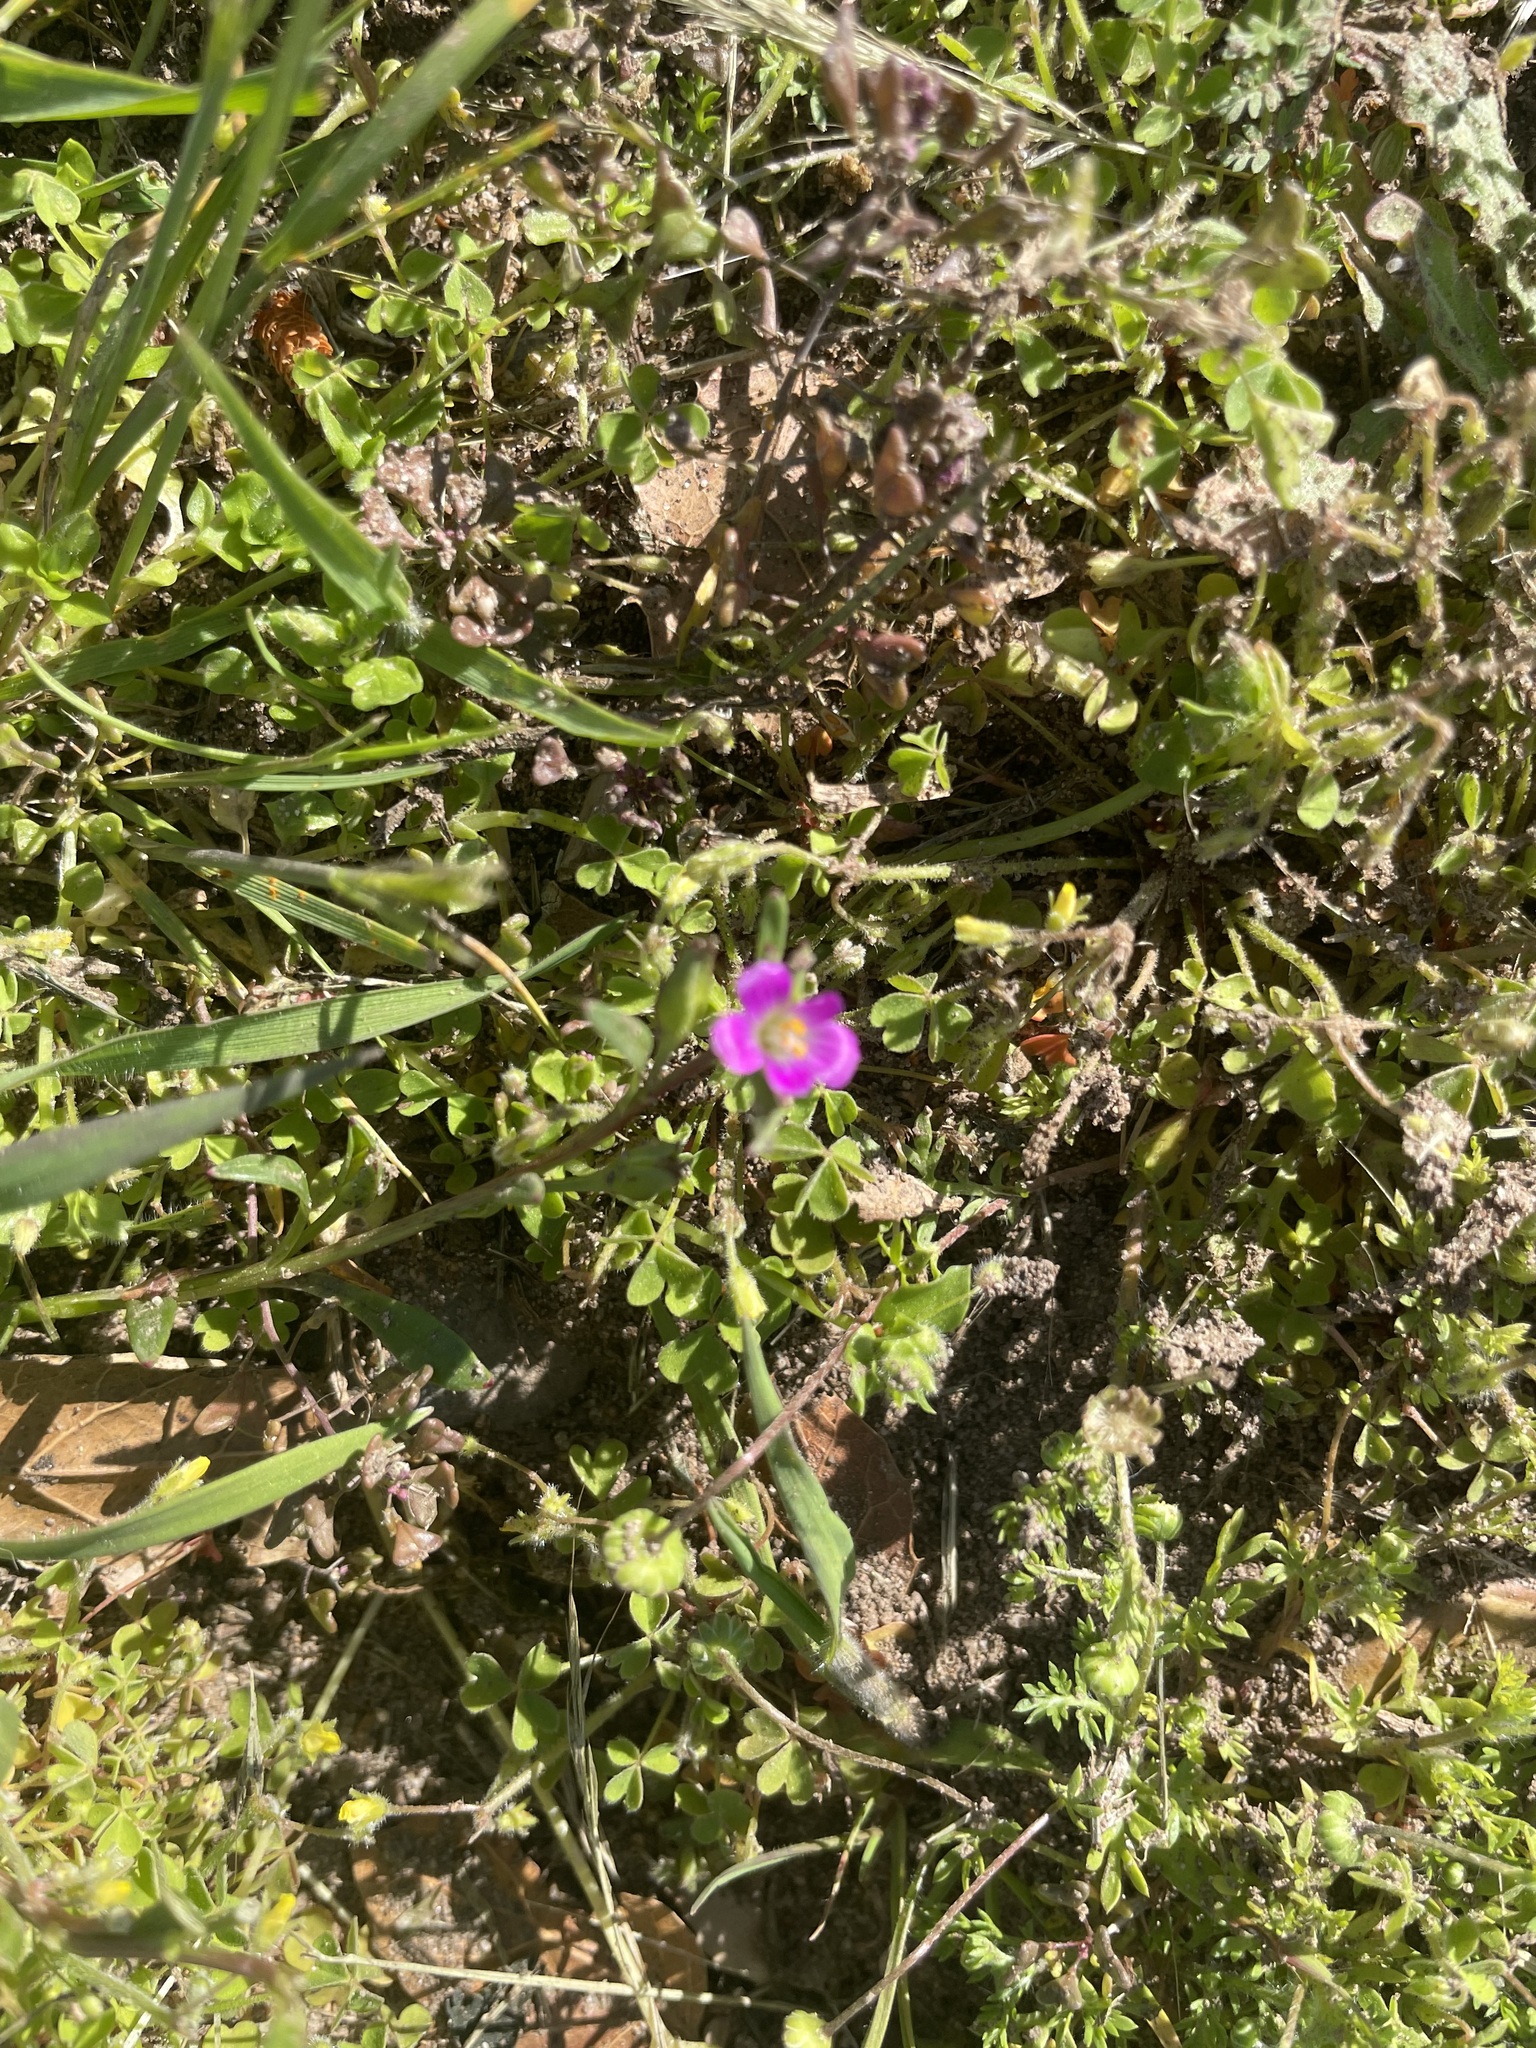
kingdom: Plantae
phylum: Tracheophyta
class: Magnoliopsida
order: Caryophyllales
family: Montiaceae
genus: Calandrinia
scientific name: Calandrinia menziesii
